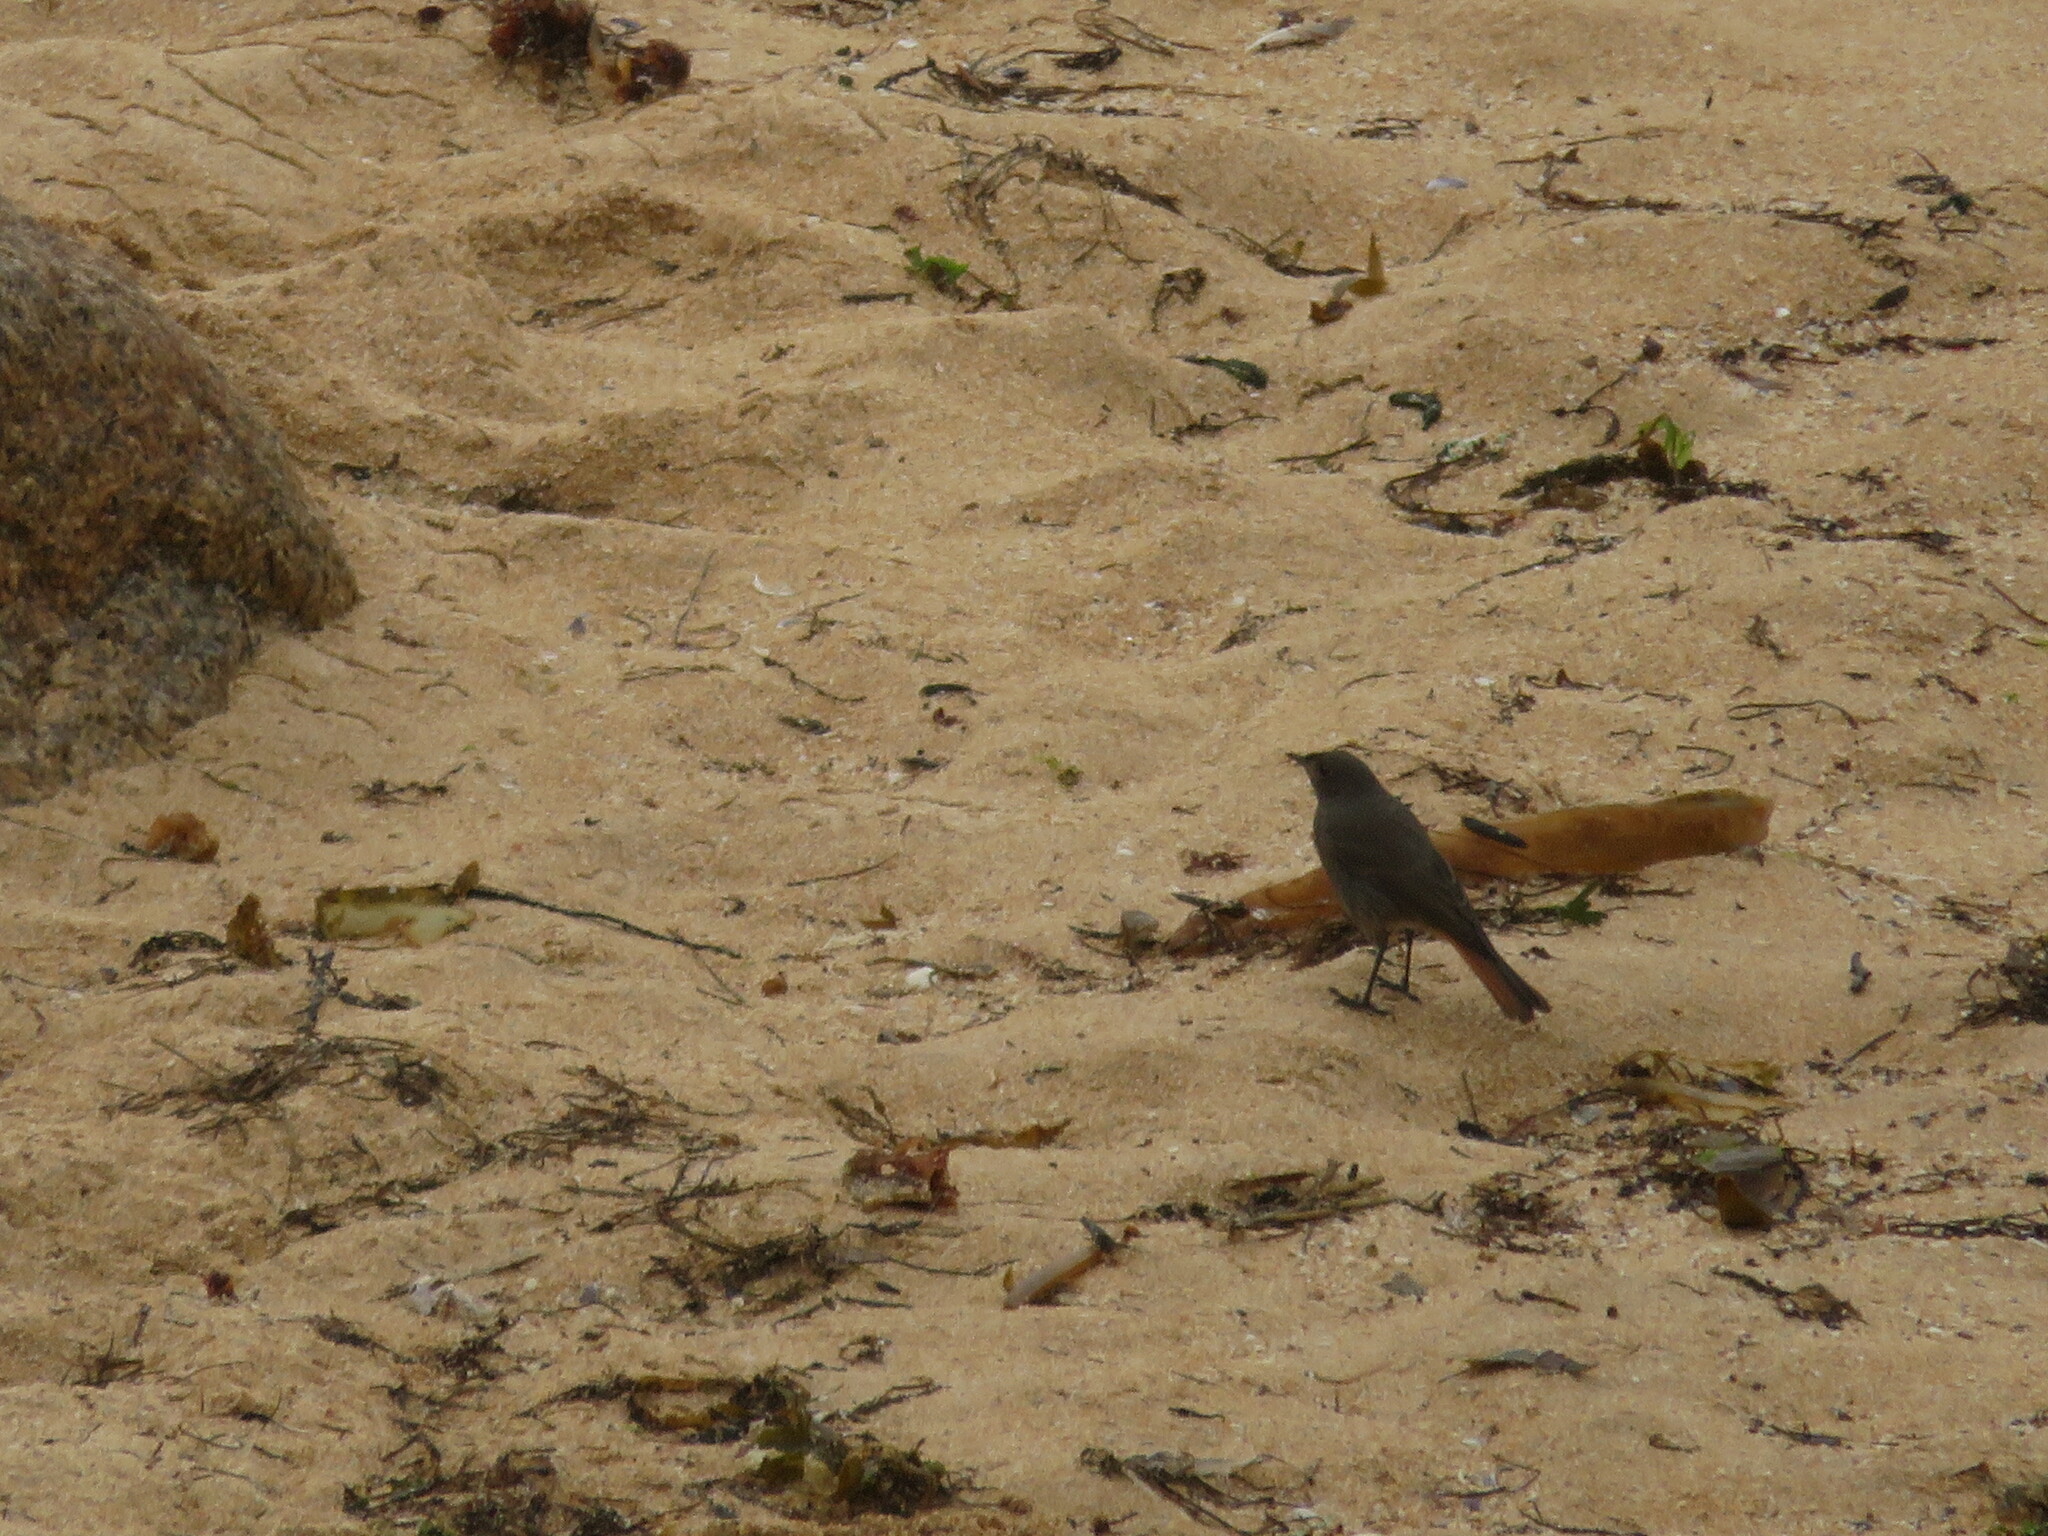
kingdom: Animalia
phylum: Chordata
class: Aves
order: Passeriformes
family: Muscicapidae
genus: Phoenicurus
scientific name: Phoenicurus ochruros
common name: Black redstart
